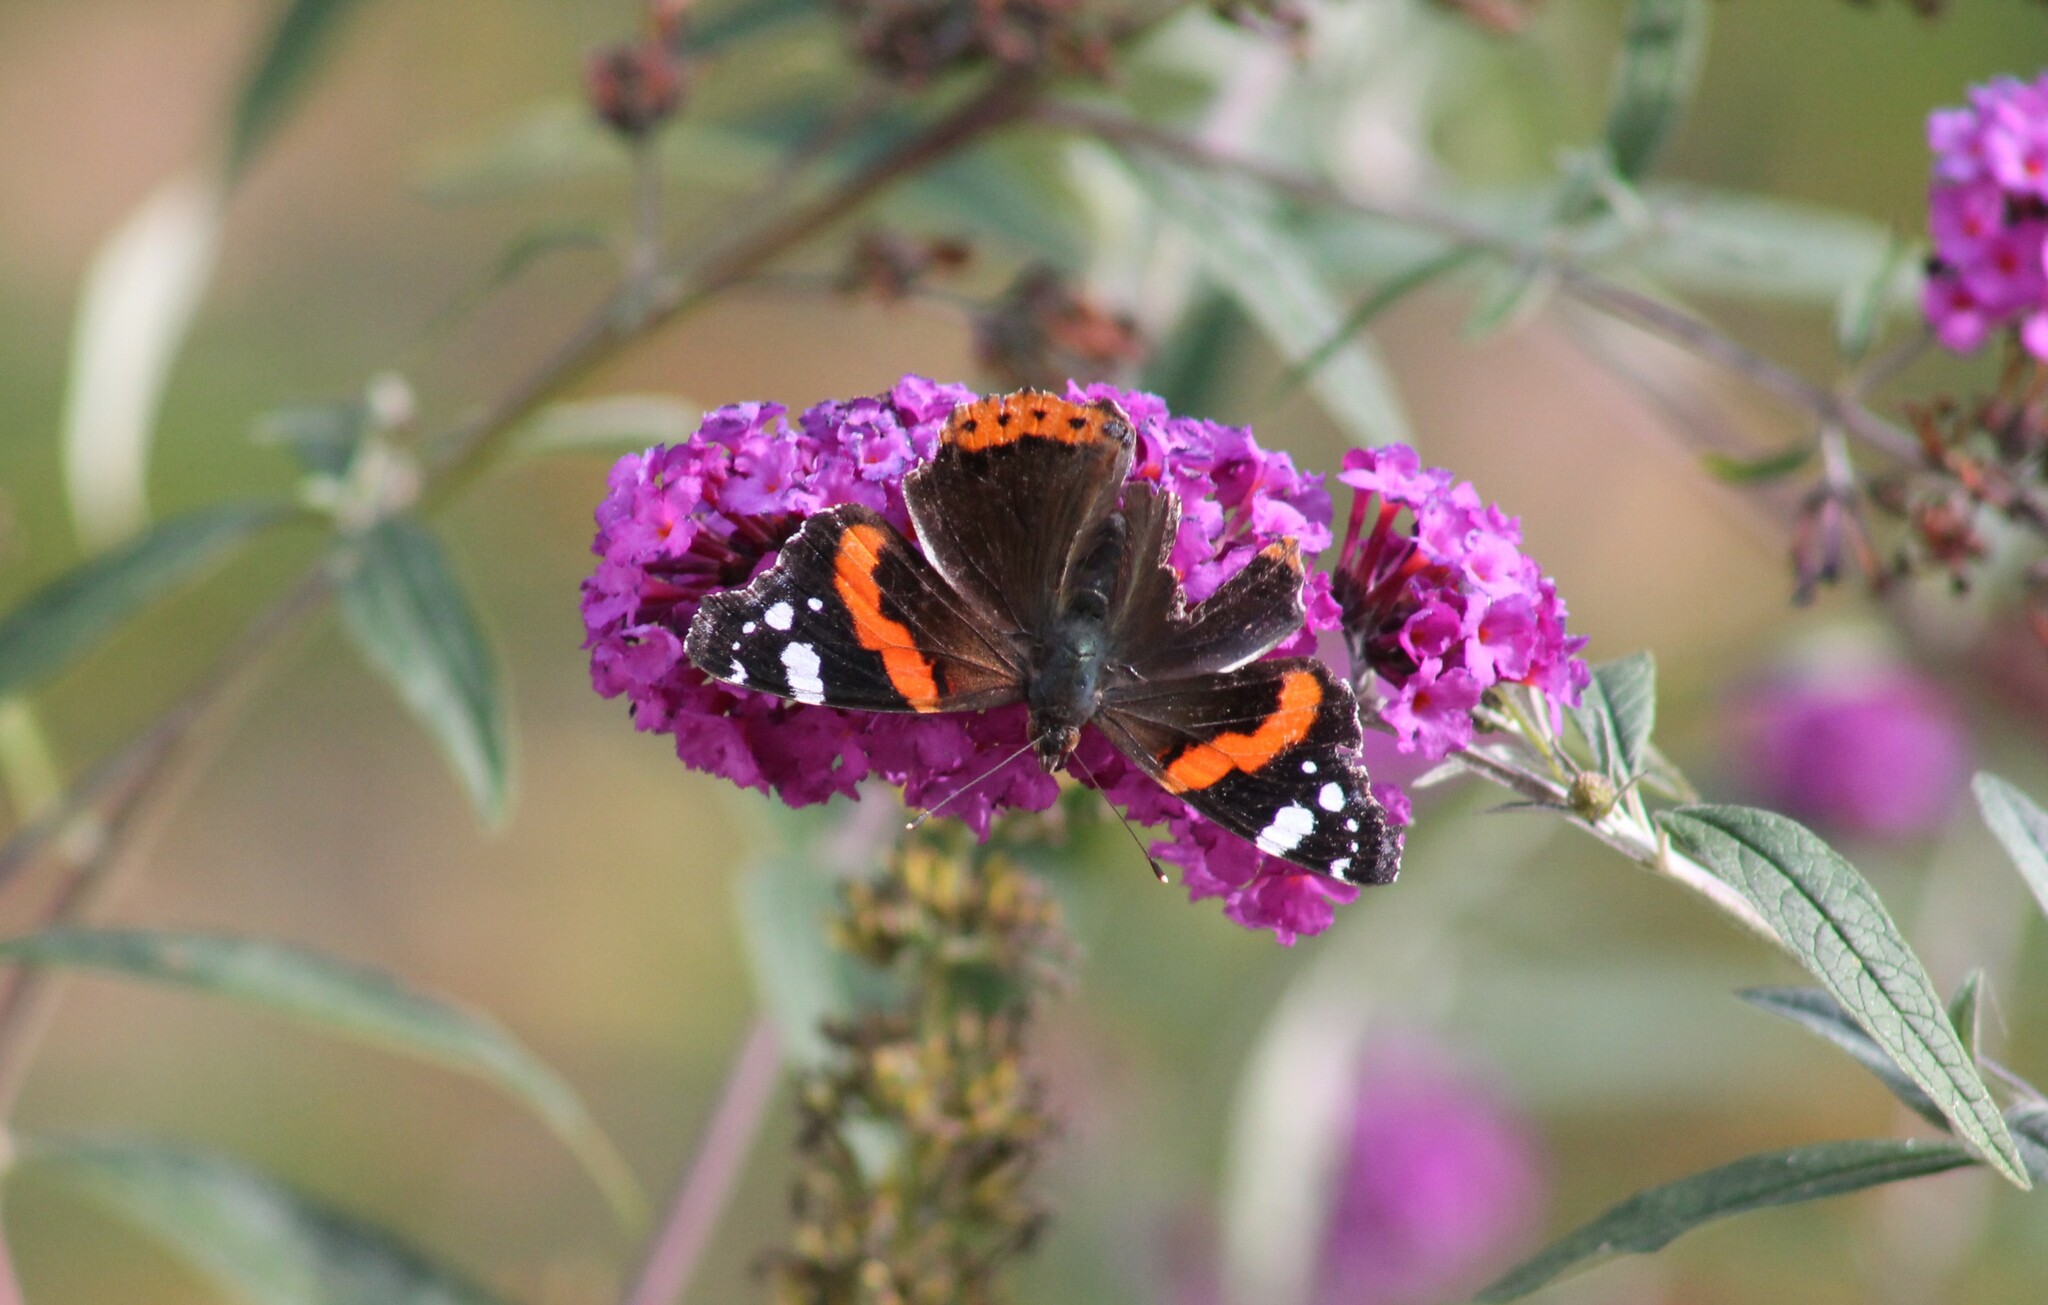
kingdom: Animalia
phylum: Arthropoda
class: Insecta
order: Lepidoptera
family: Nymphalidae
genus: Vanessa
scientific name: Vanessa atalanta
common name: Red admiral
